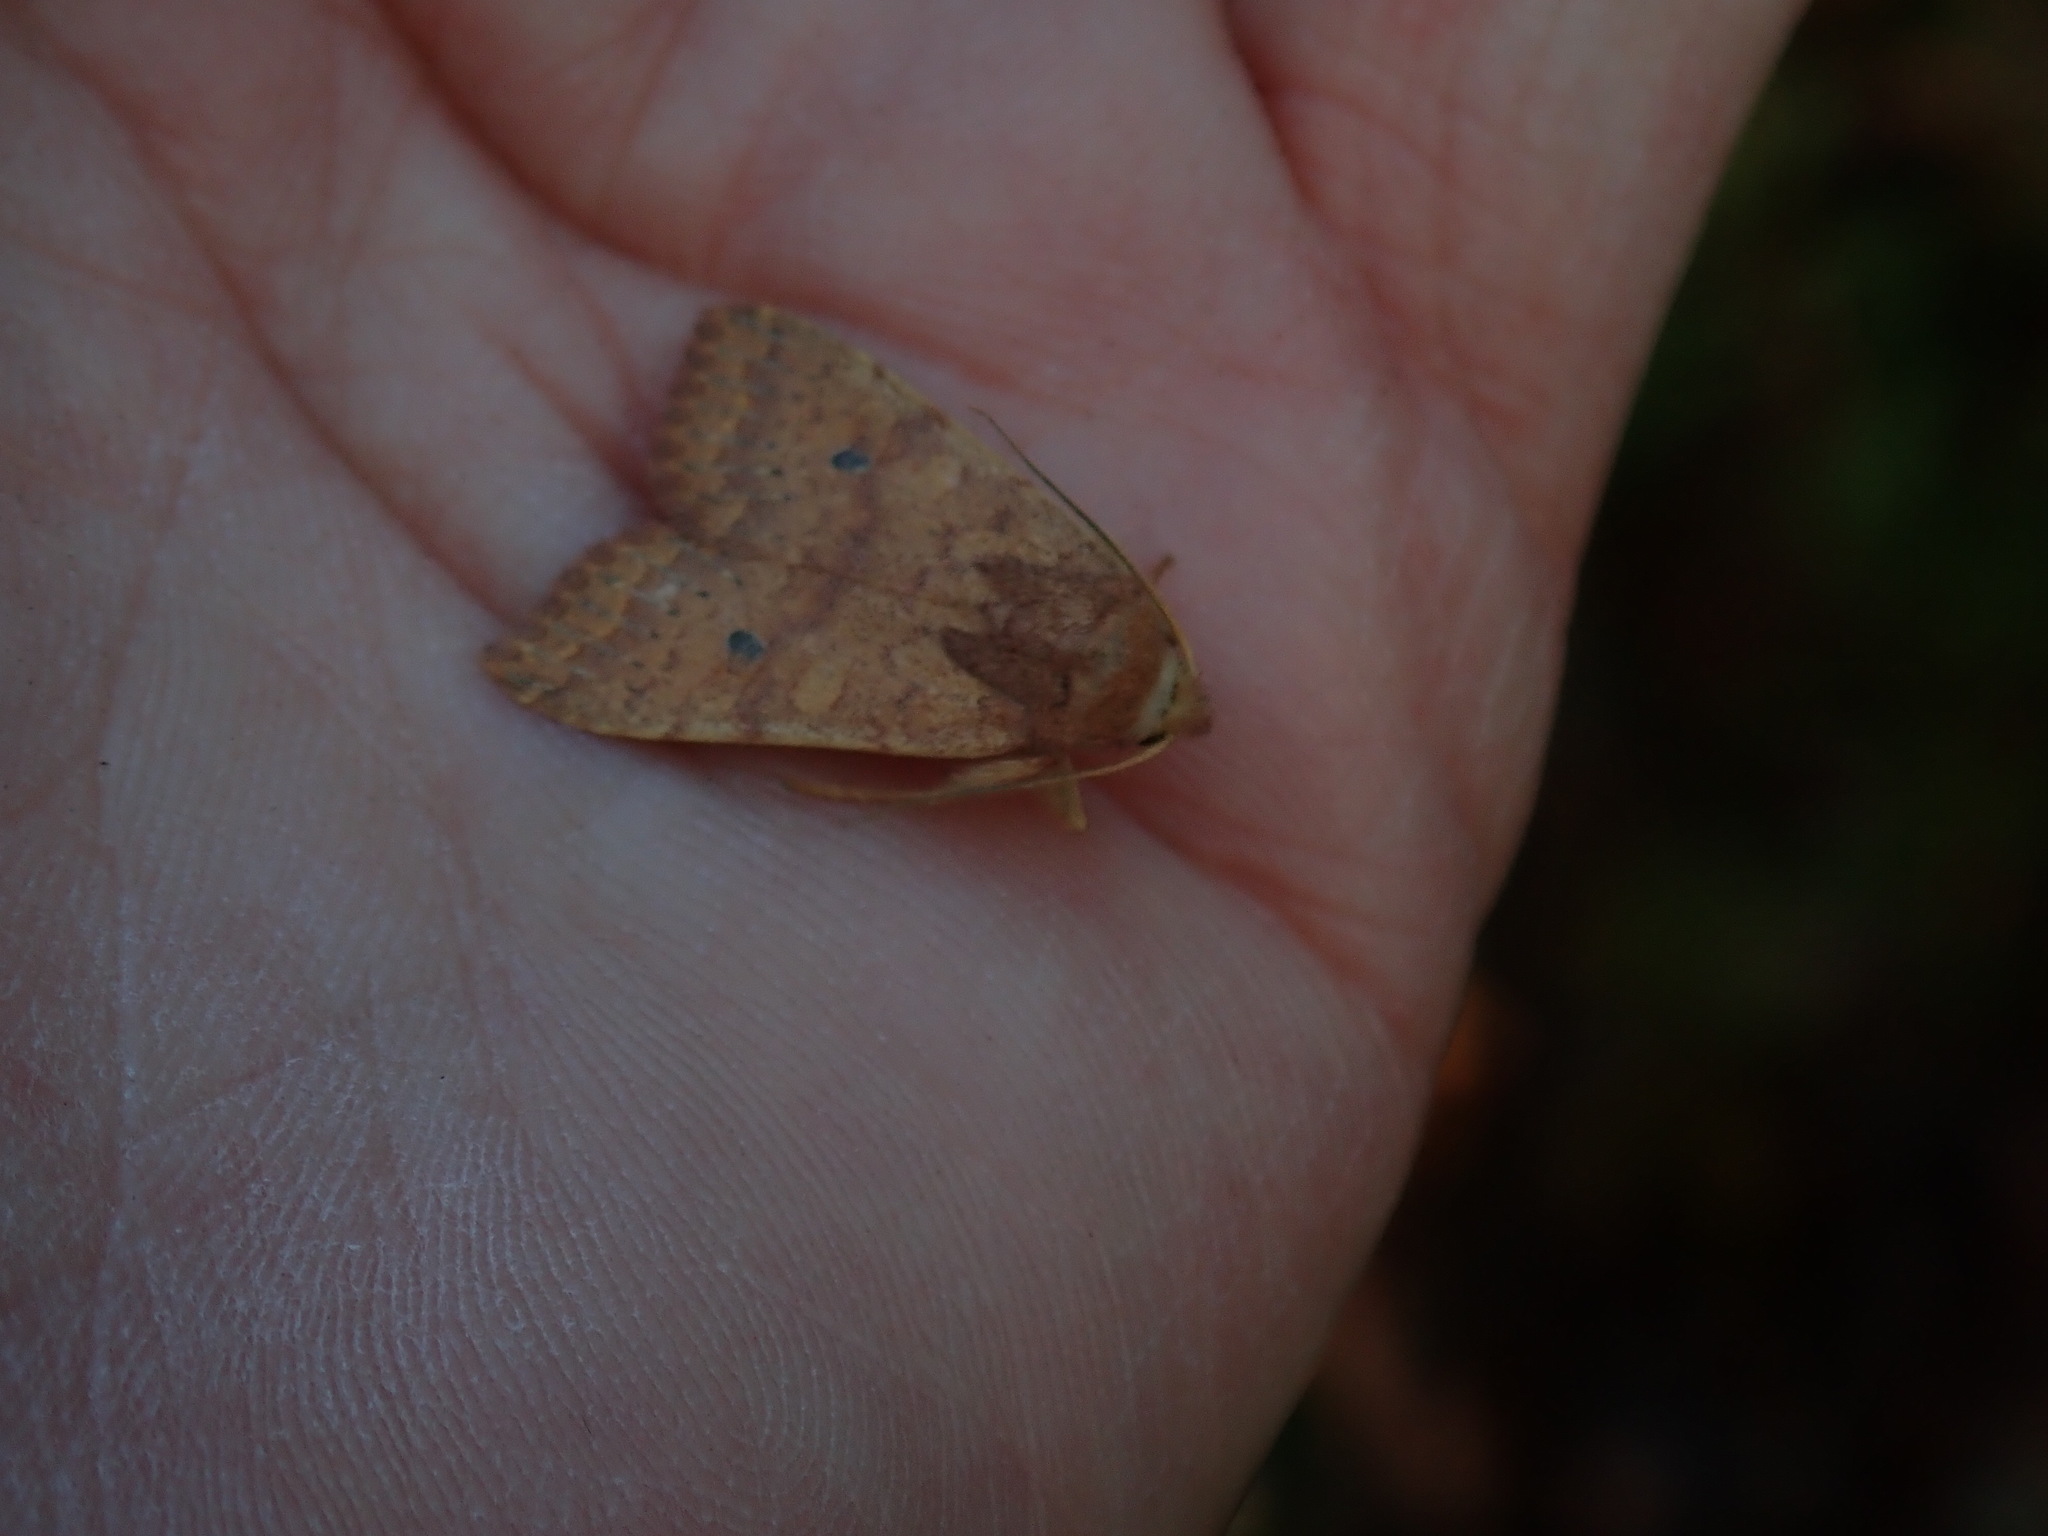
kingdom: Animalia
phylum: Arthropoda
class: Insecta
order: Lepidoptera
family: Noctuidae
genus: Agrochola
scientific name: Agrochola bicolorago
